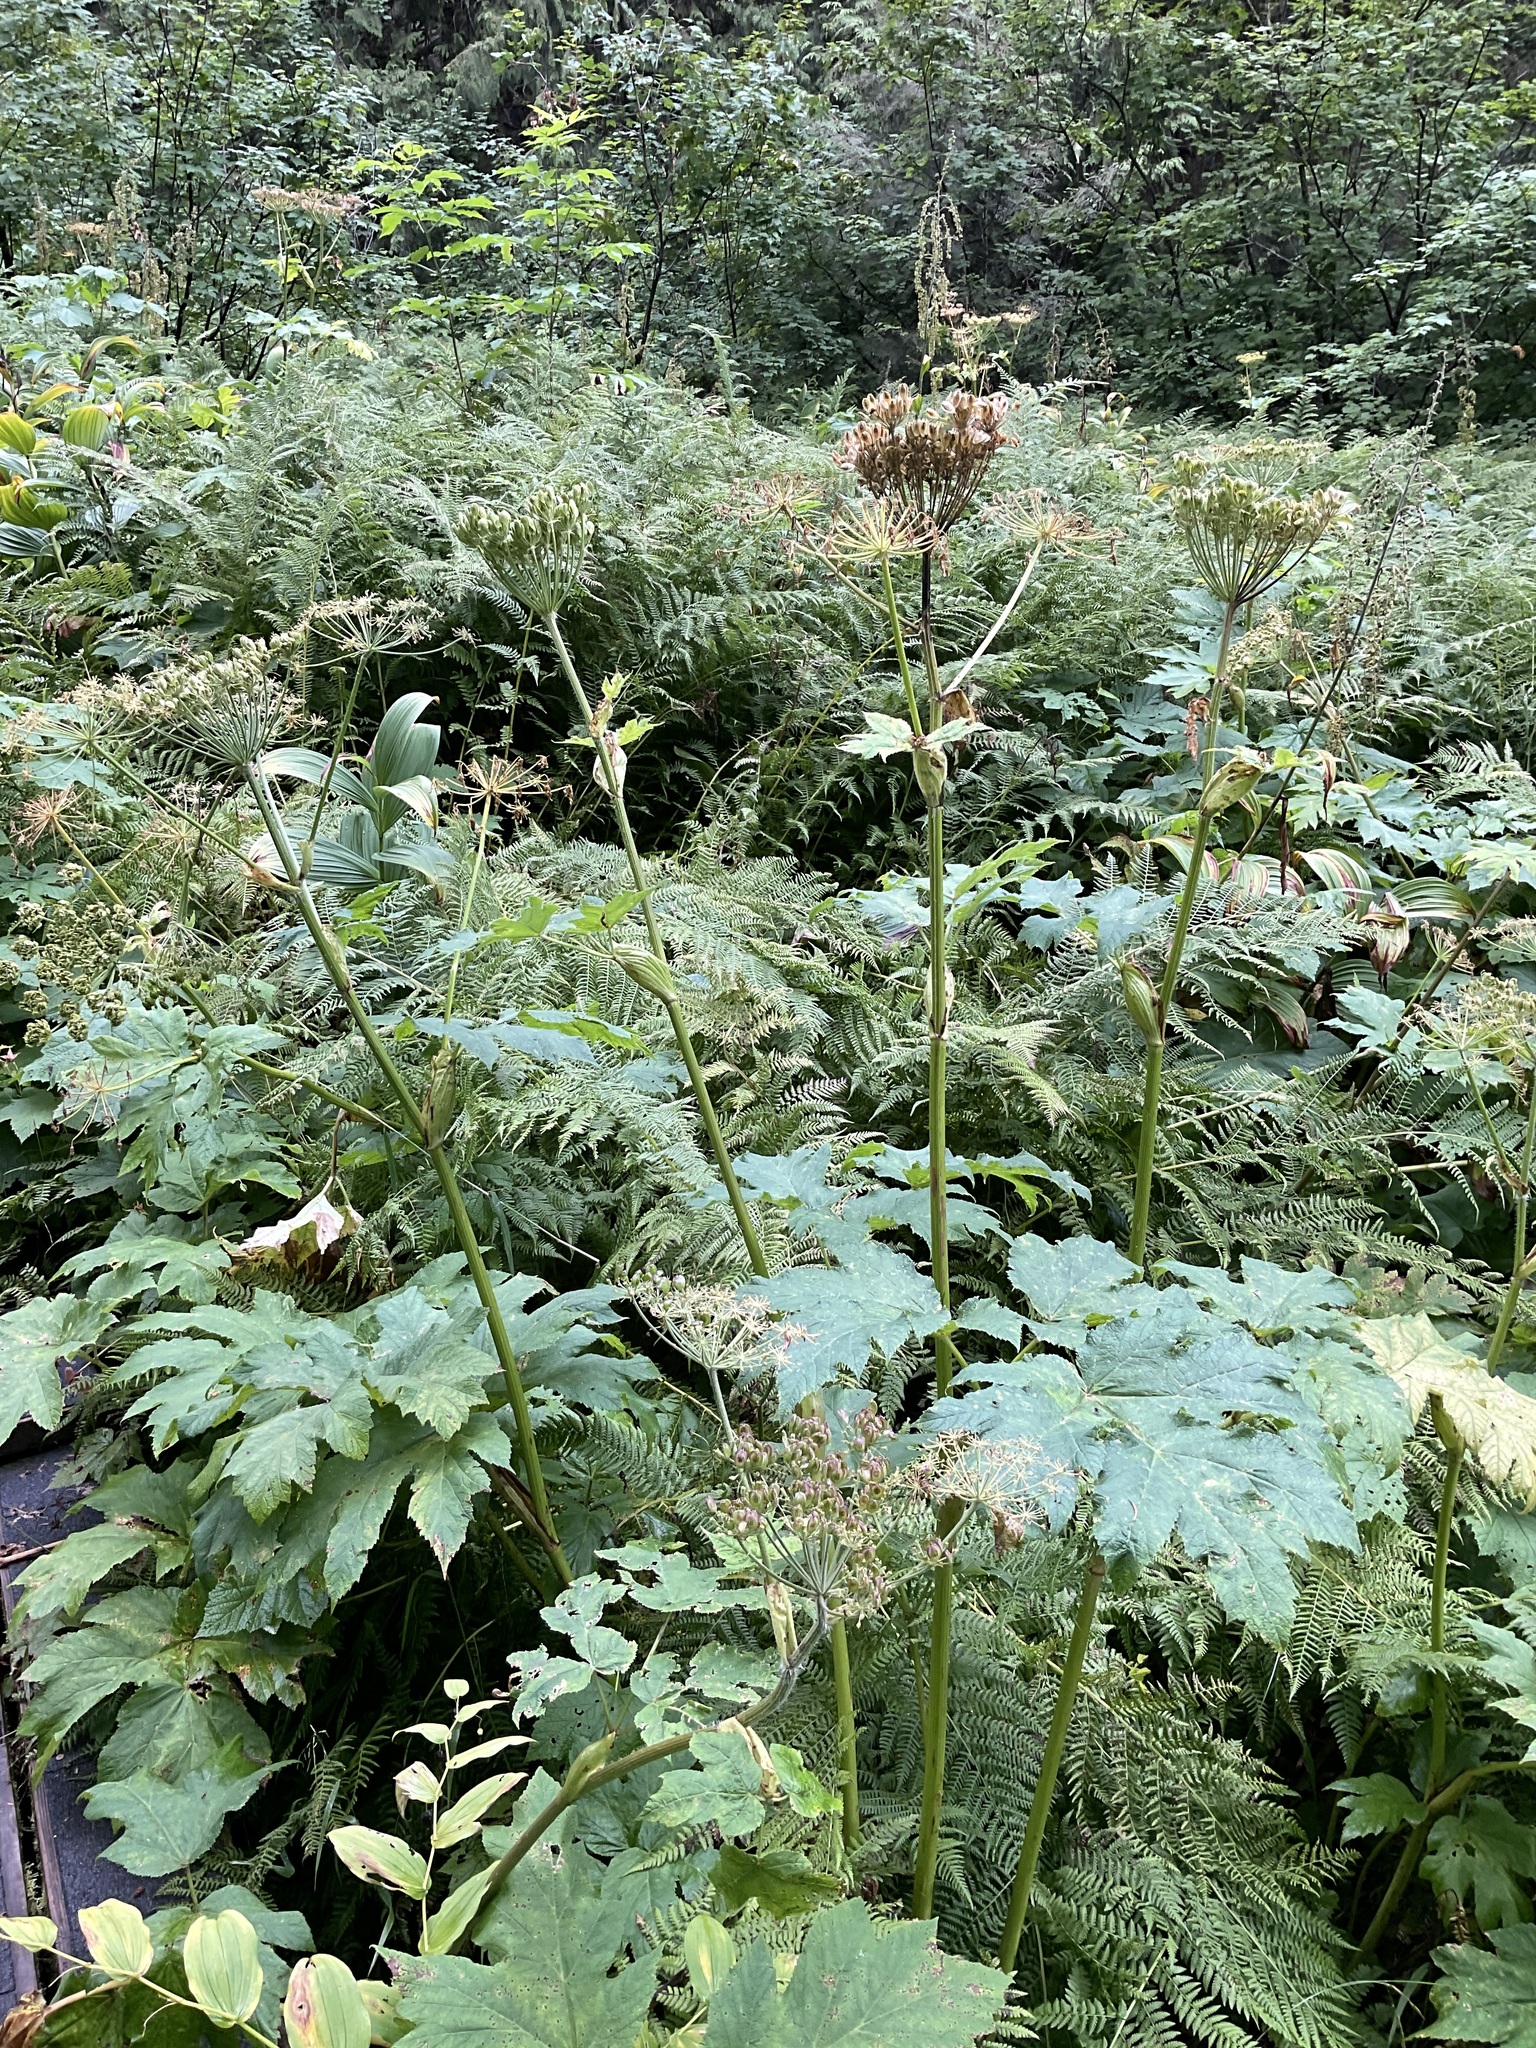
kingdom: Plantae
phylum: Tracheophyta
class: Magnoliopsida
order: Apiales
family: Apiaceae
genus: Heracleum
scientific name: Heracleum maximum
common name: American cow parsnip
